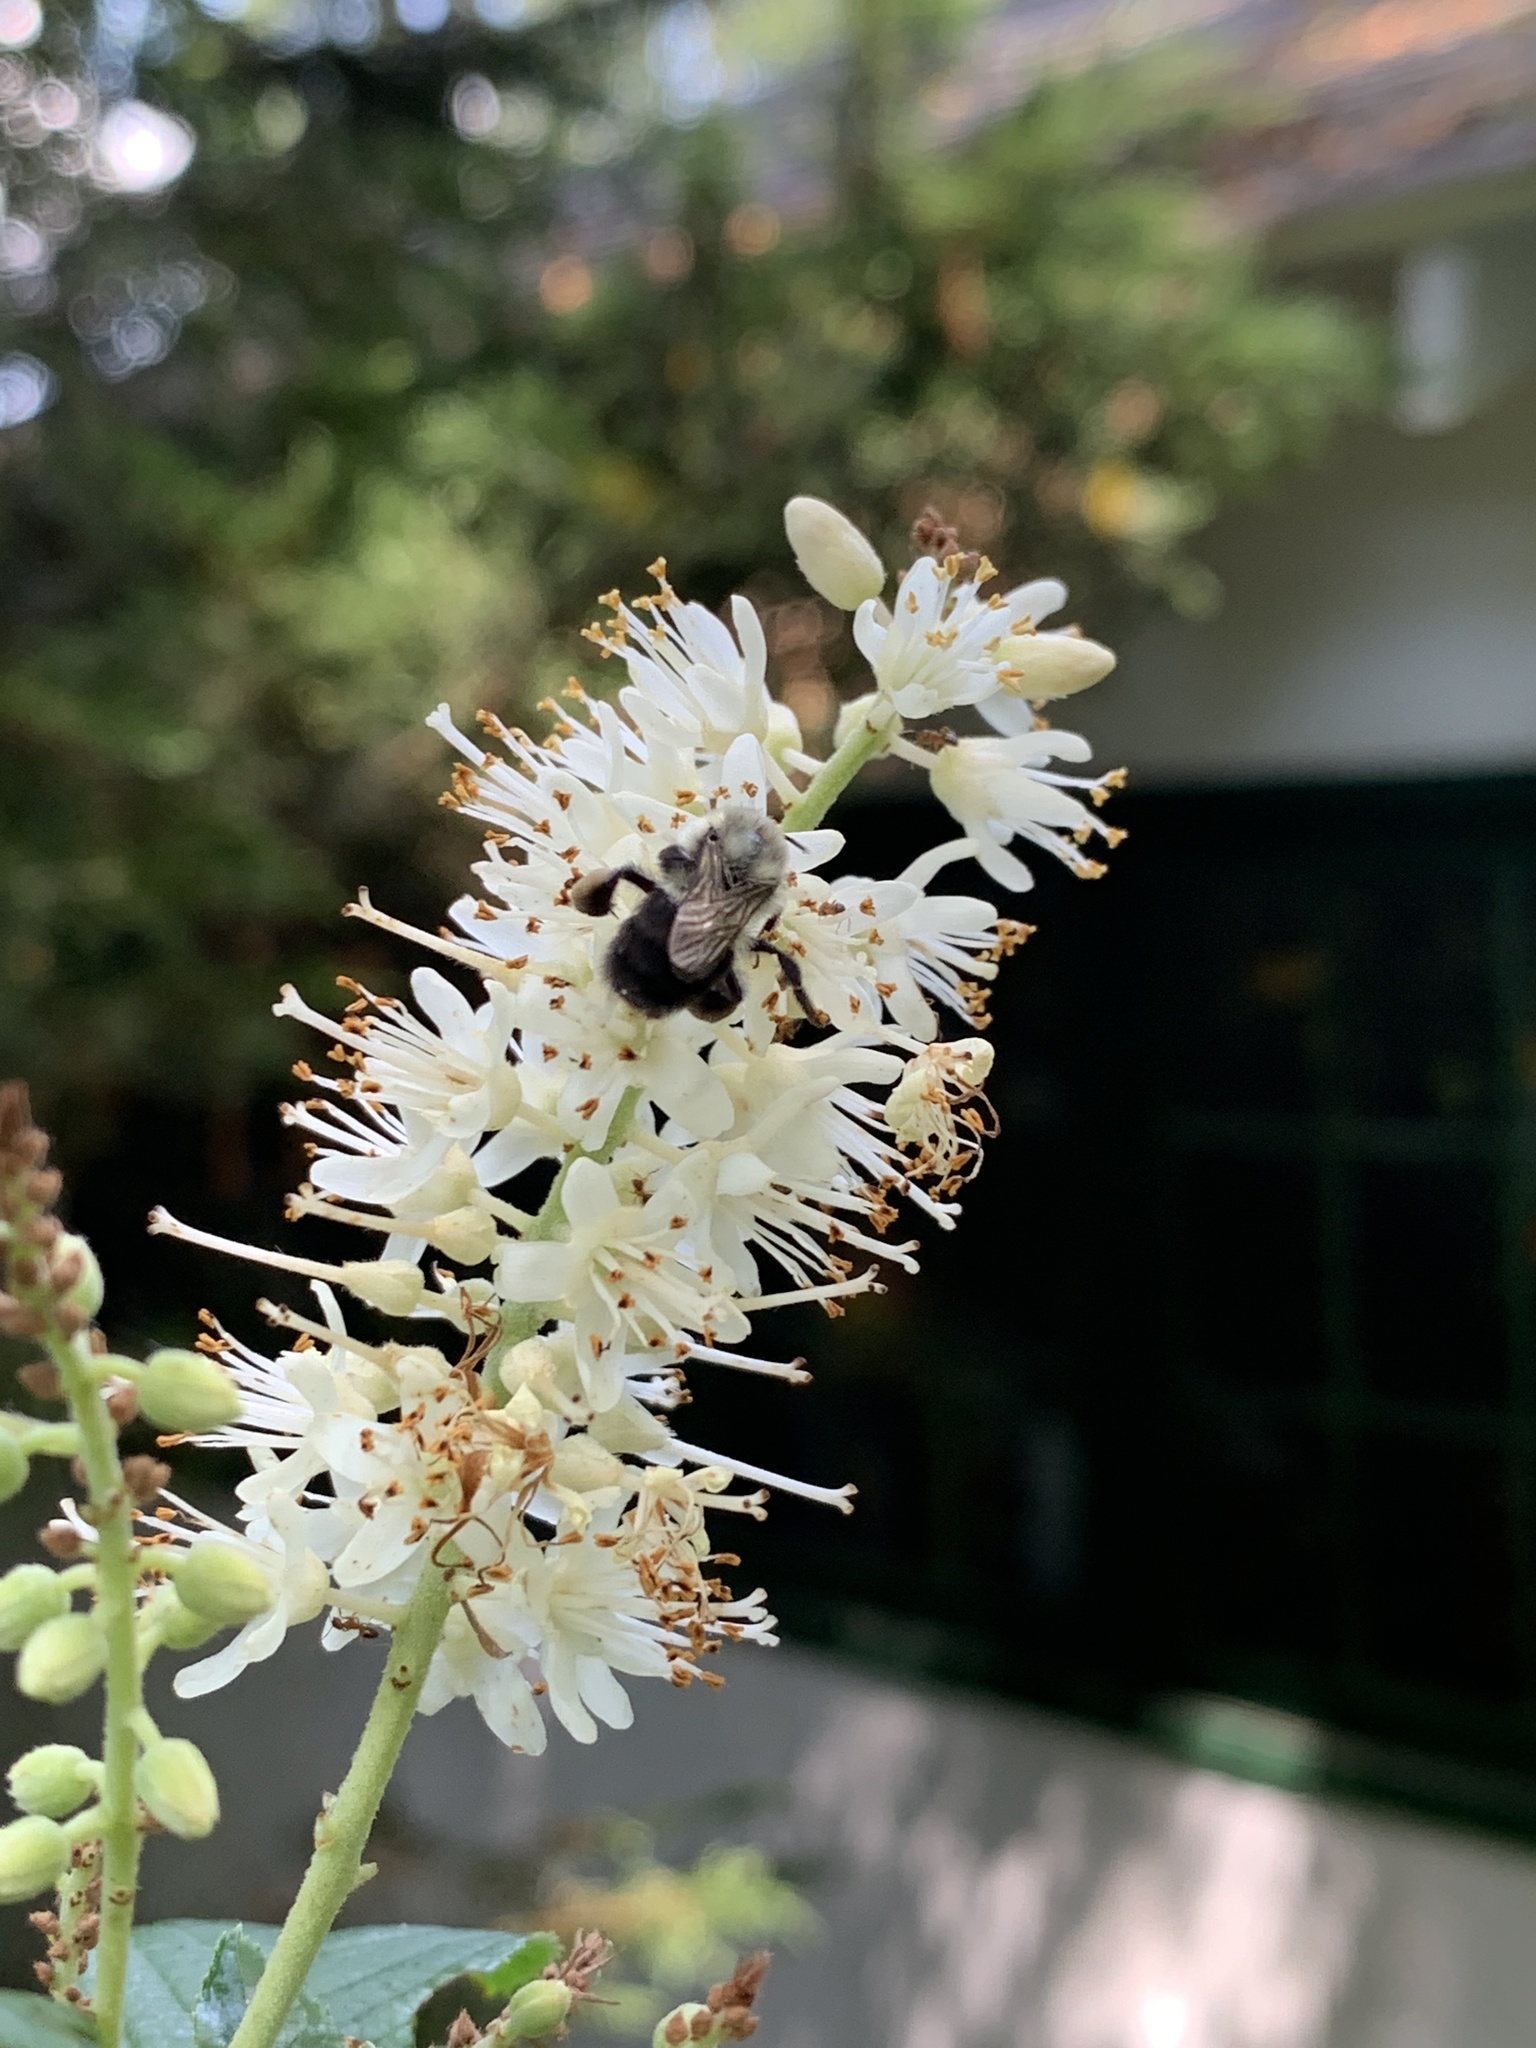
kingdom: Plantae
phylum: Tracheophyta
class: Magnoliopsida
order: Ericales
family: Clethraceae
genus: Clethra
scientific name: Clethra alnifolia
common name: Sweet pepperbush
